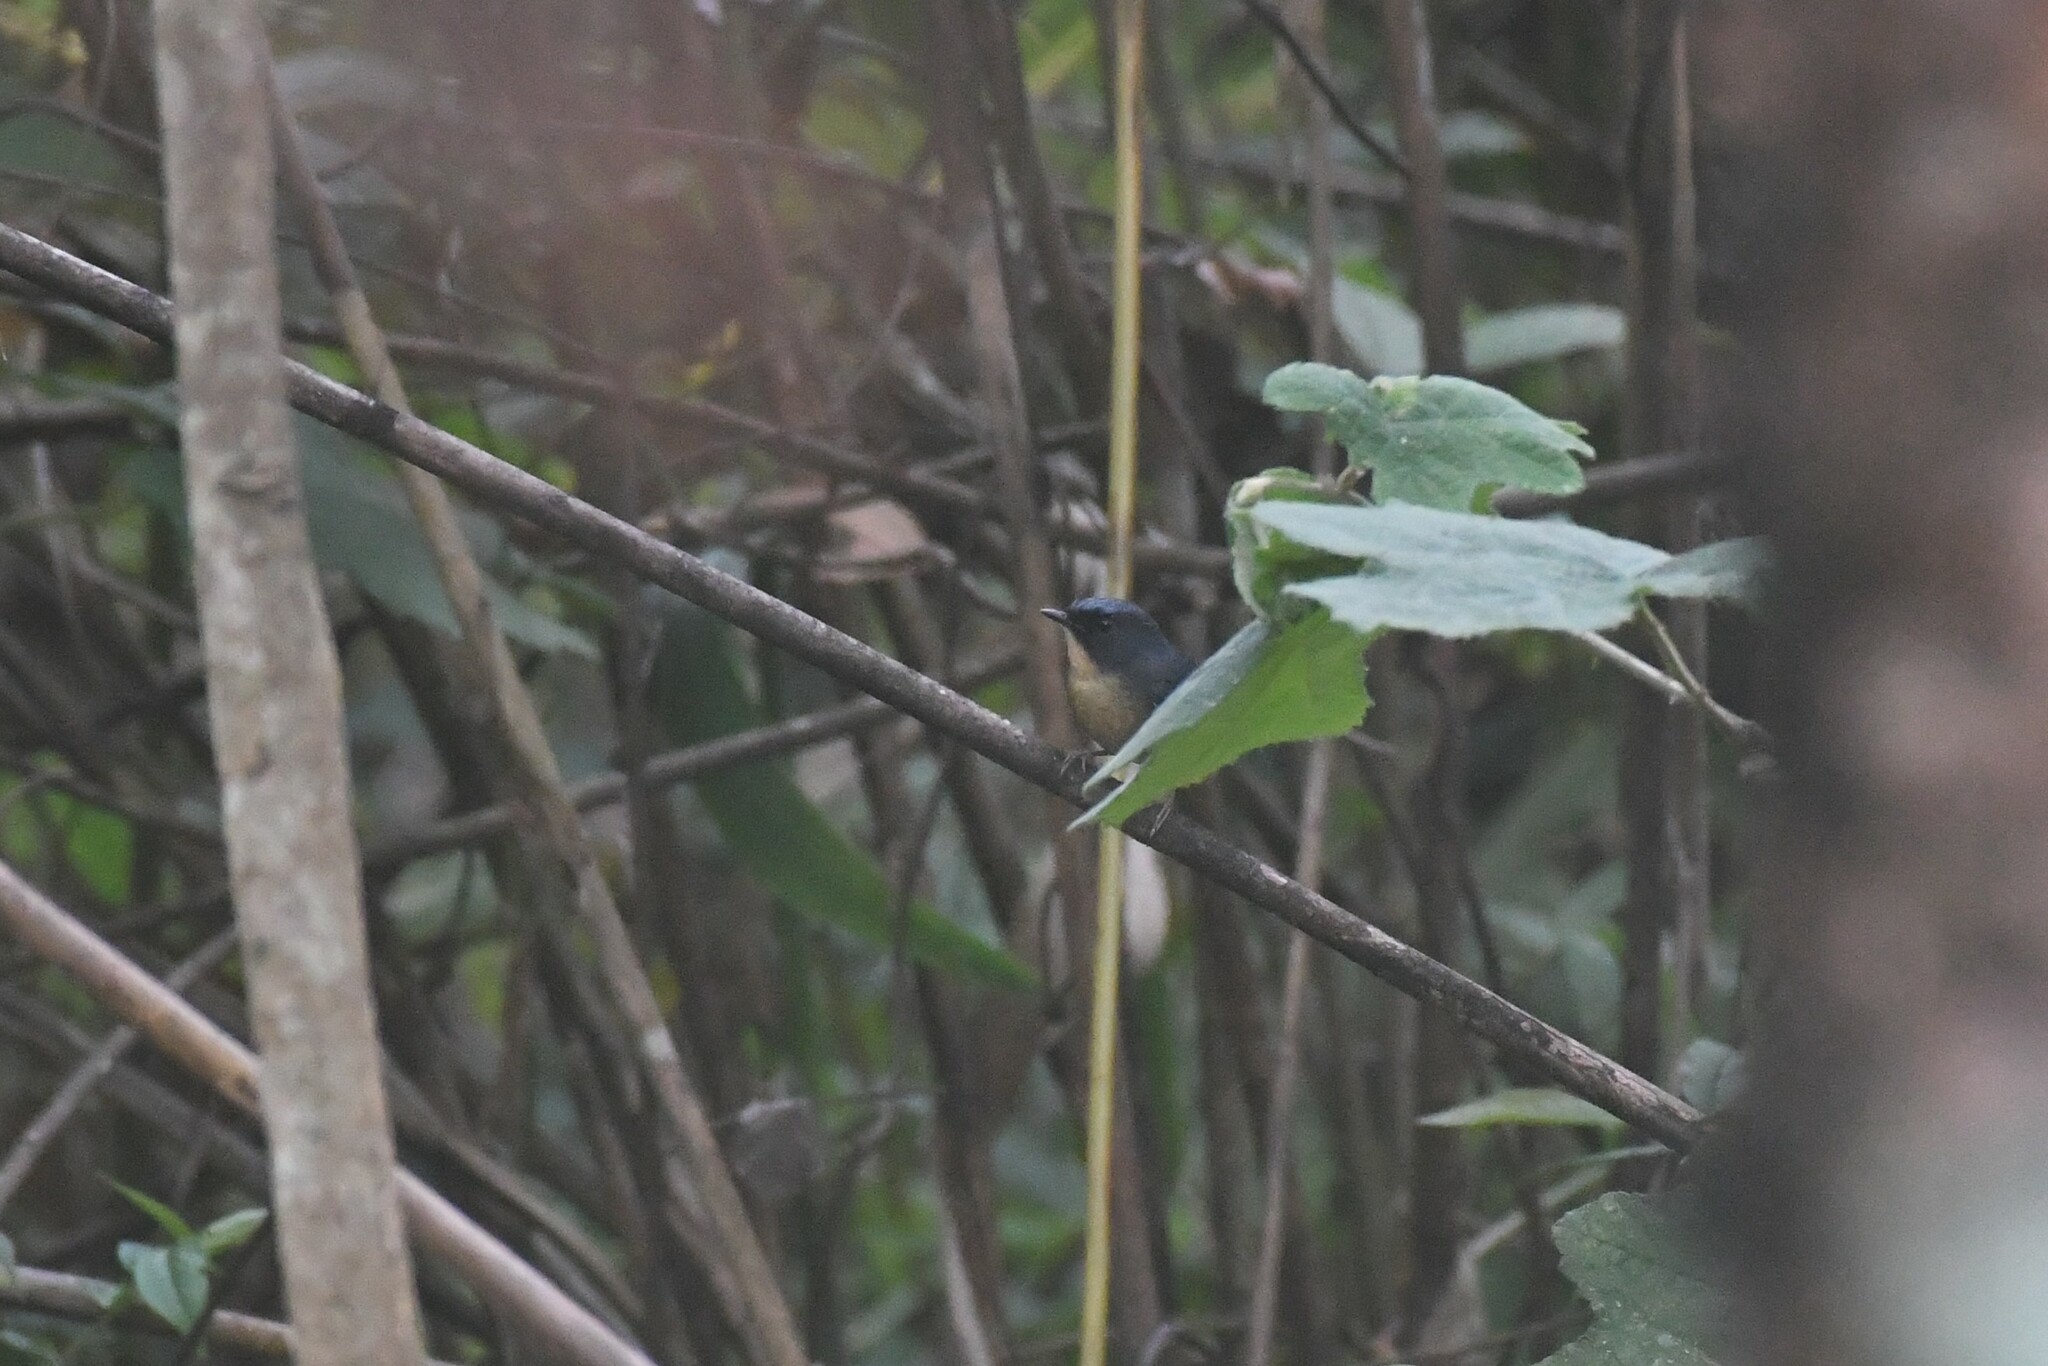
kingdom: Animalia
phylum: Chordata
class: Aves
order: Passeriformes
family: Muscicapidae
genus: Ficedula
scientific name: Ficedula tricolor
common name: Slaty-blue flycatcher
